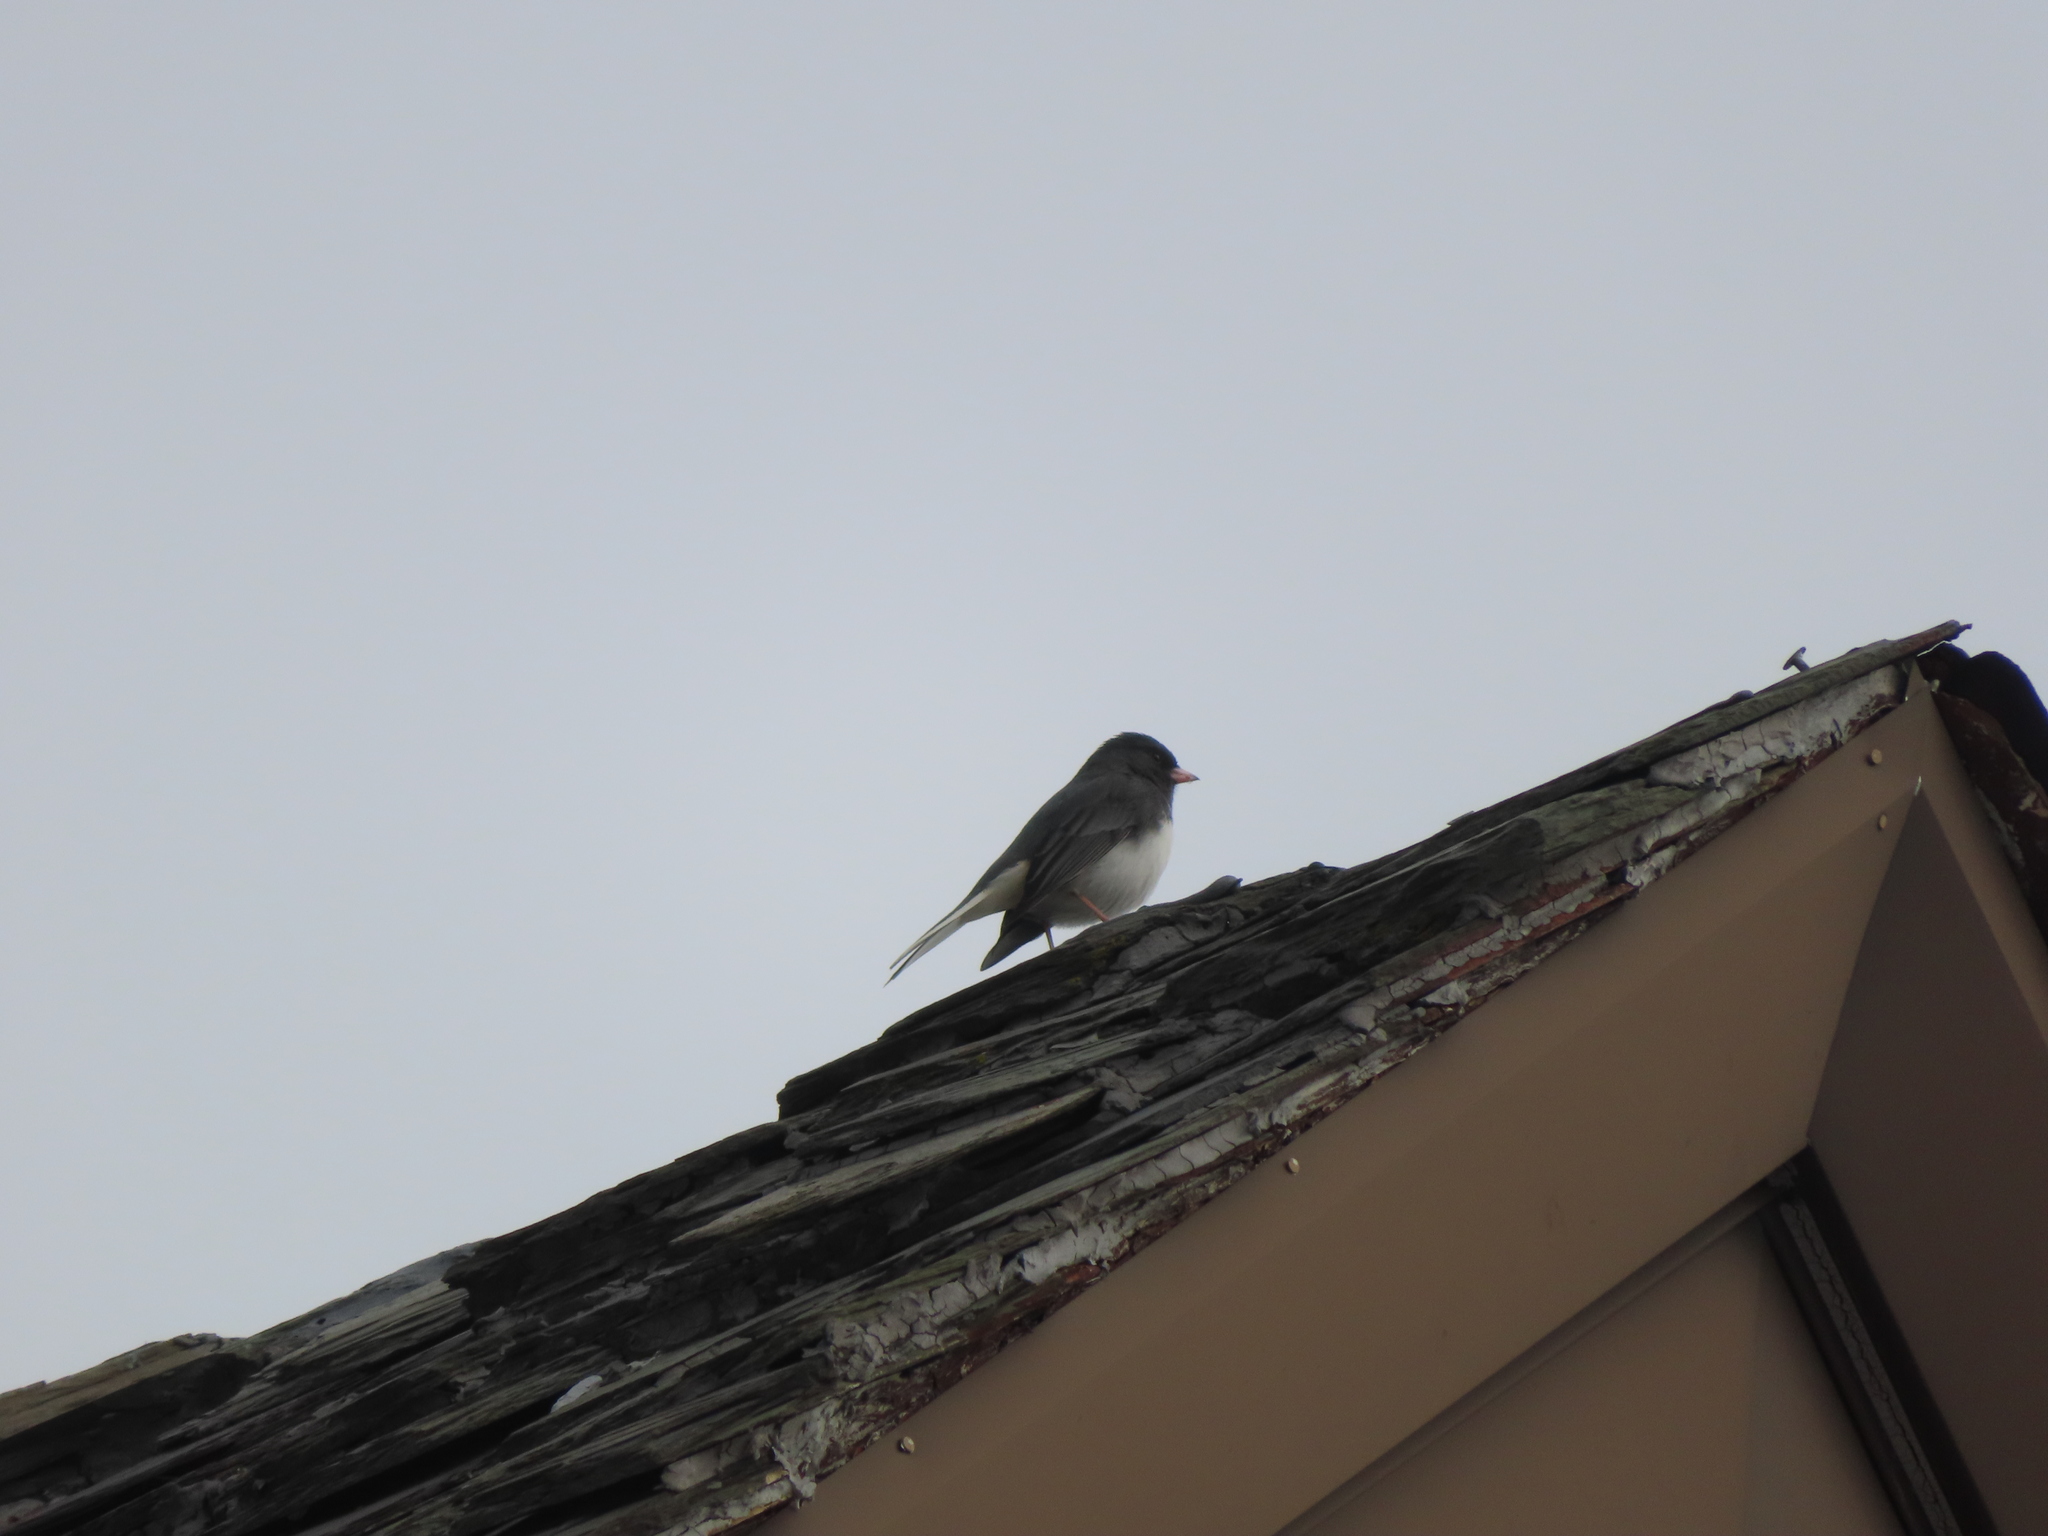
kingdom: Animalia
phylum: Chordata
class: Aves
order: Passeriformes
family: Passerellidae
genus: Junco
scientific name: Junco hyemalis
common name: Dark-eyed junco
